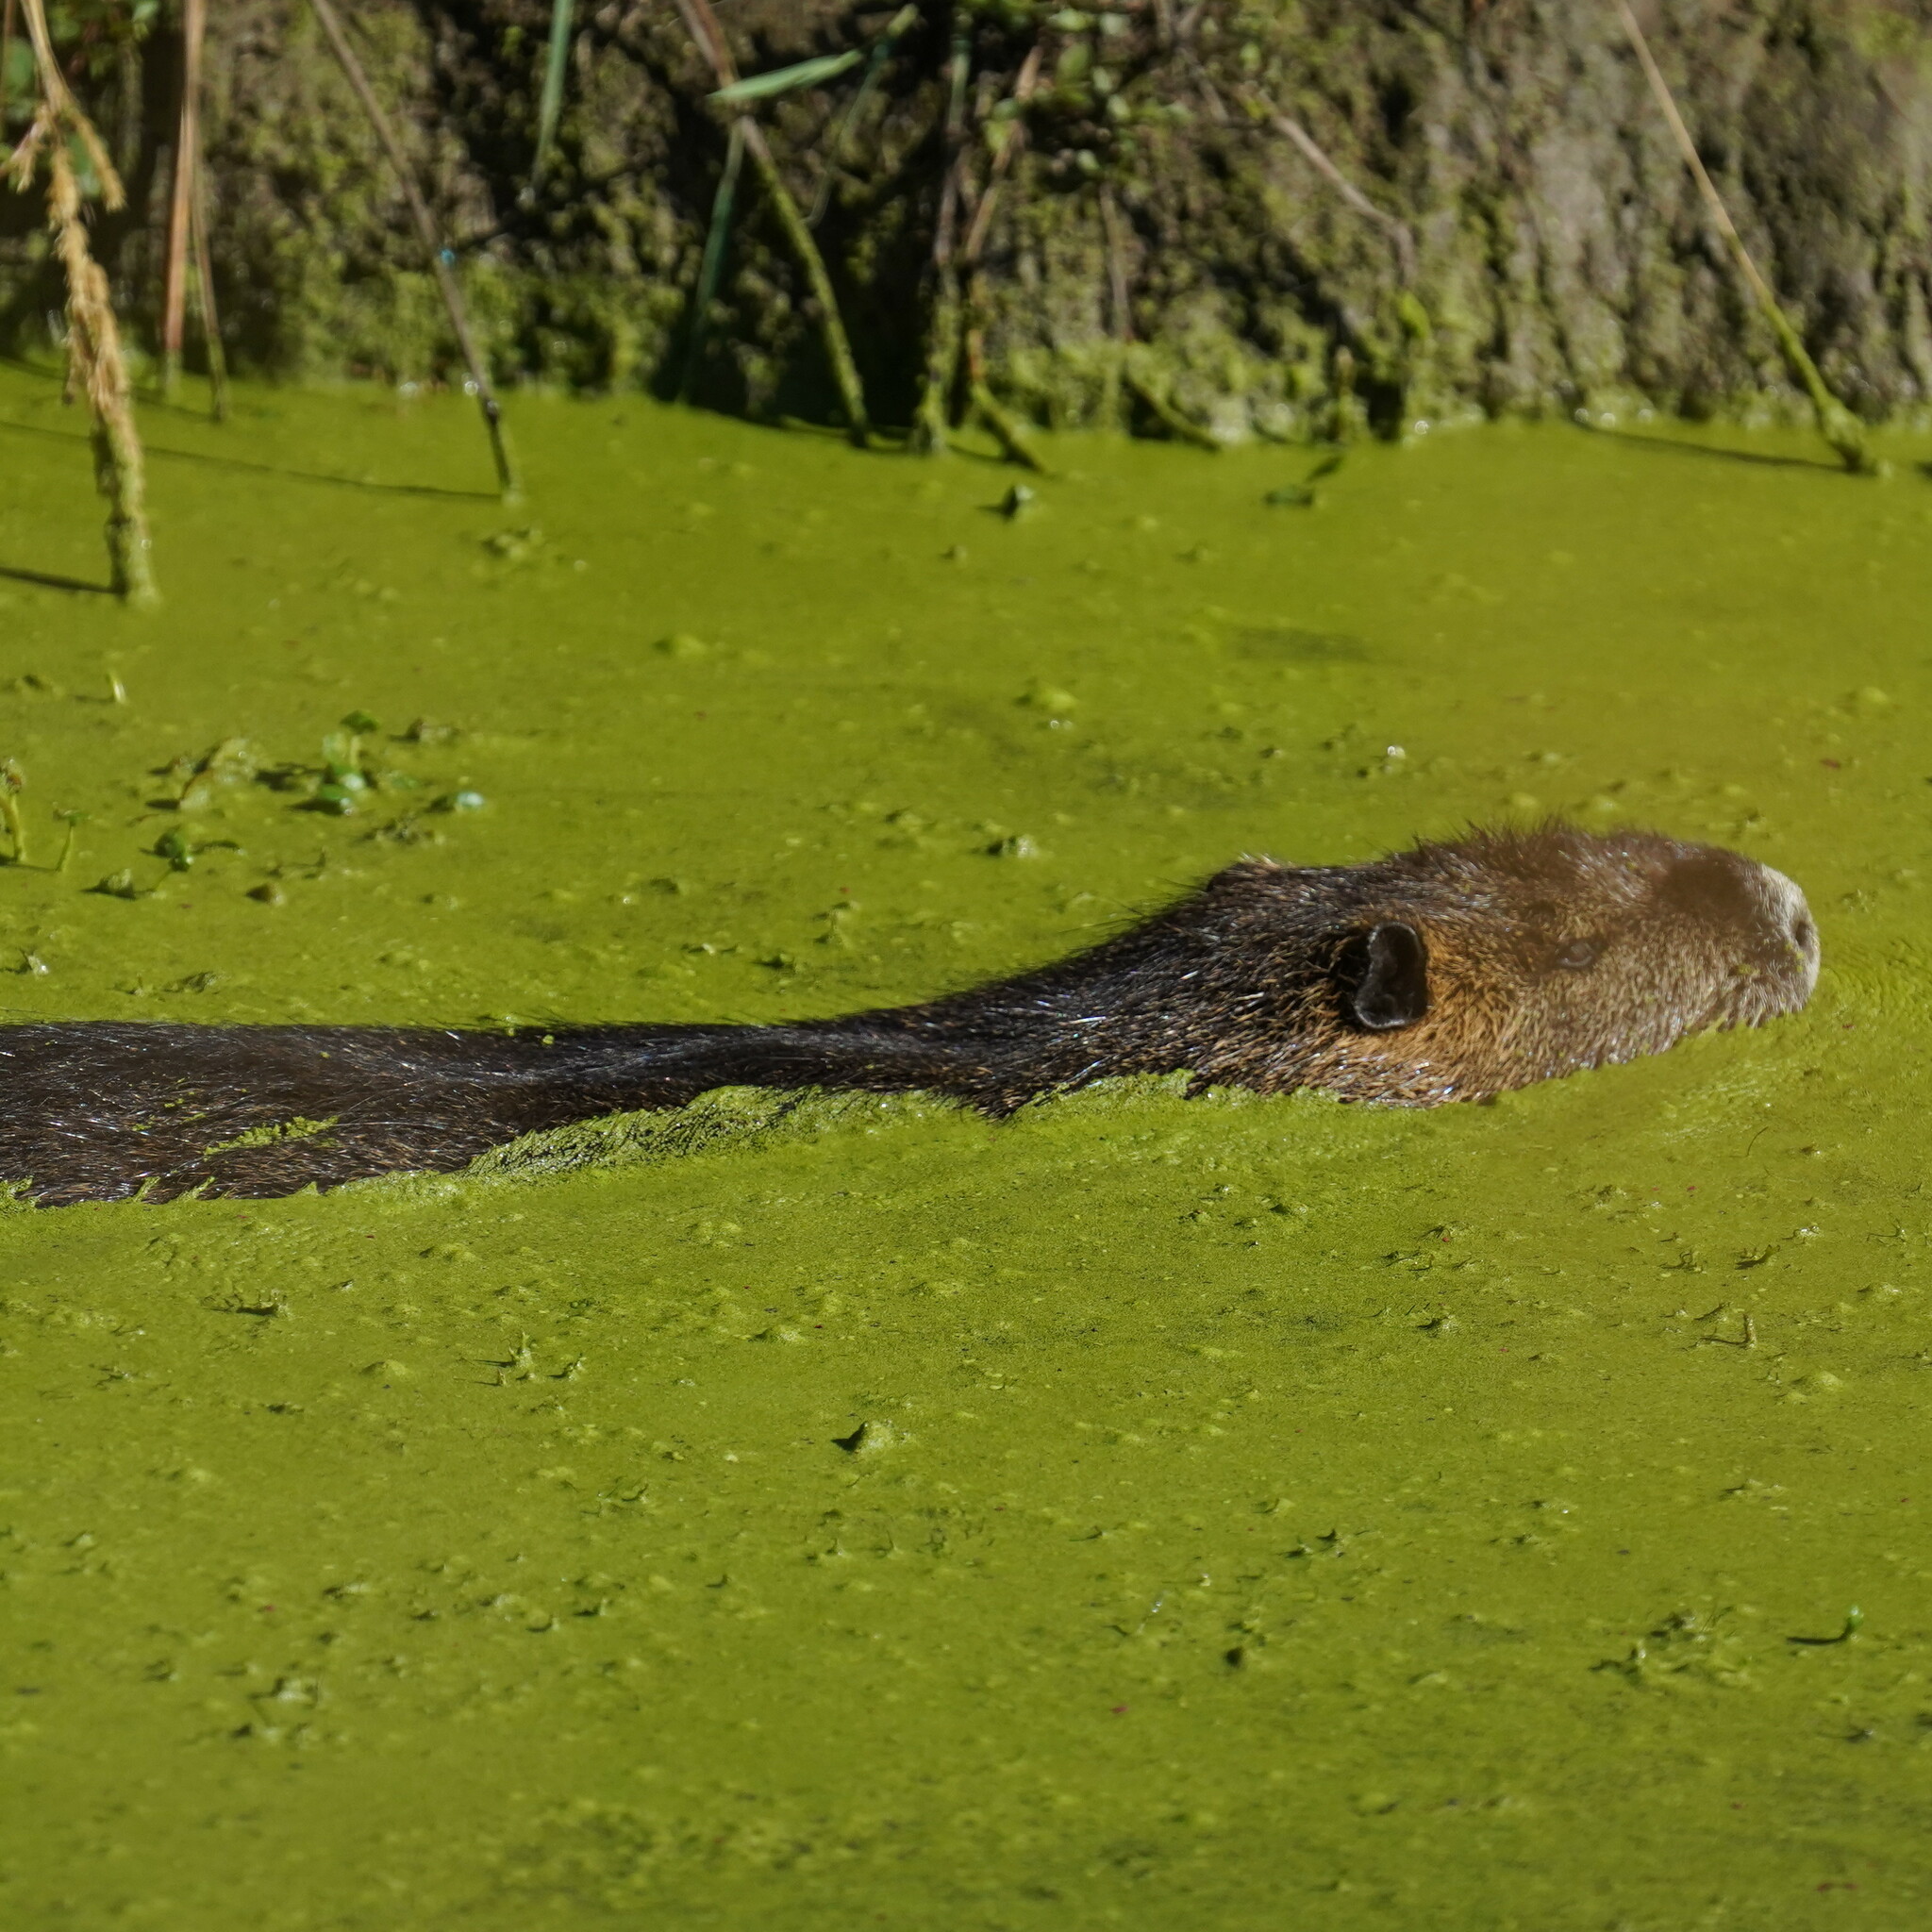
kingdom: Animalia
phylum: Chordata
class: Mammalia
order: Rodentia
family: Myocastoridae
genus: Myocastor
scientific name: Myocastor coypus
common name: Coypu
